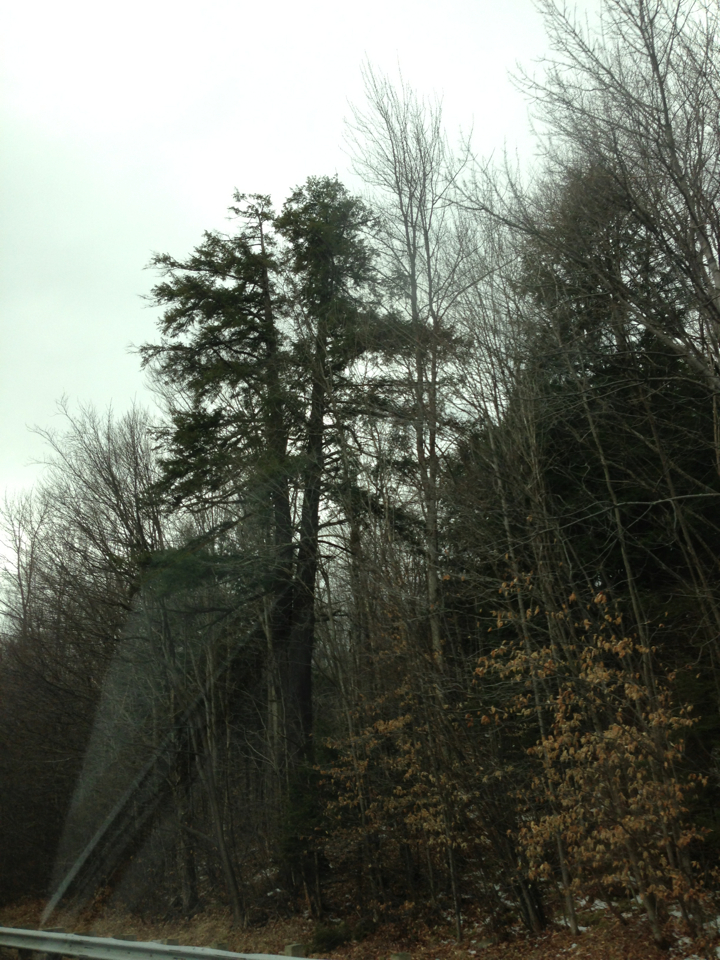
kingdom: Plantae
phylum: Tracheophyta
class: Magnoliopsida
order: Fagales
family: Fagaceae
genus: Fagus
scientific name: Fagus grandifolia
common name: American beech
